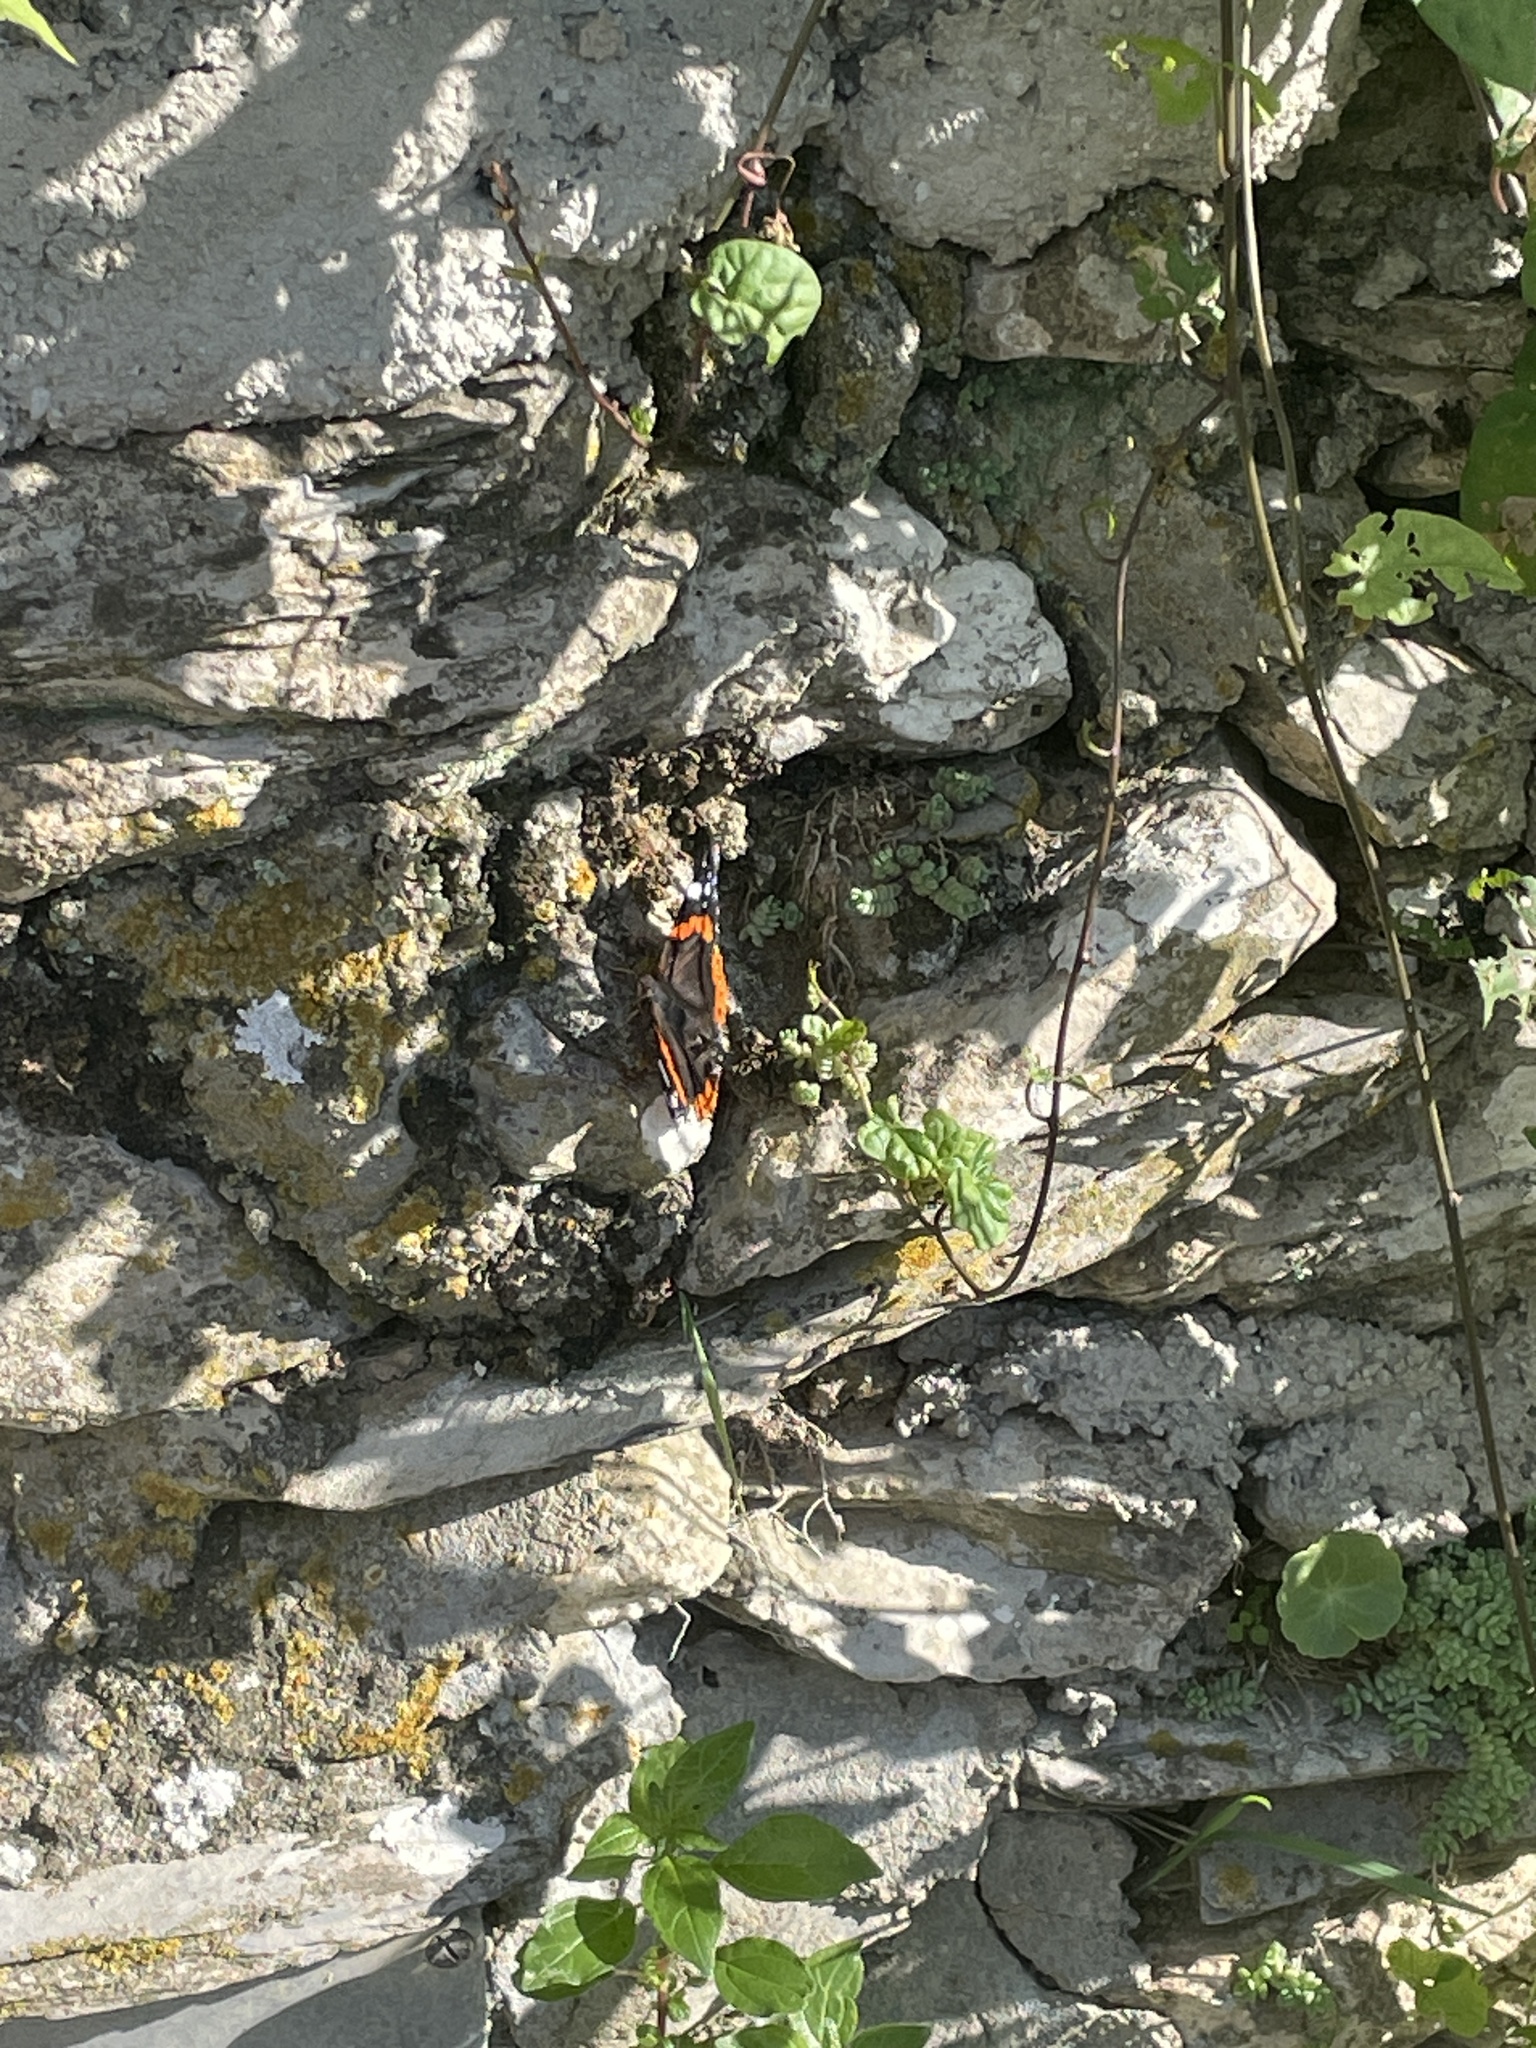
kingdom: Animalia
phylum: Arthropoda
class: Insecta
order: Lepidoptera
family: Nymphalidae
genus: Vanessa
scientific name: Vanessa atalanta
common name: Red admiral
